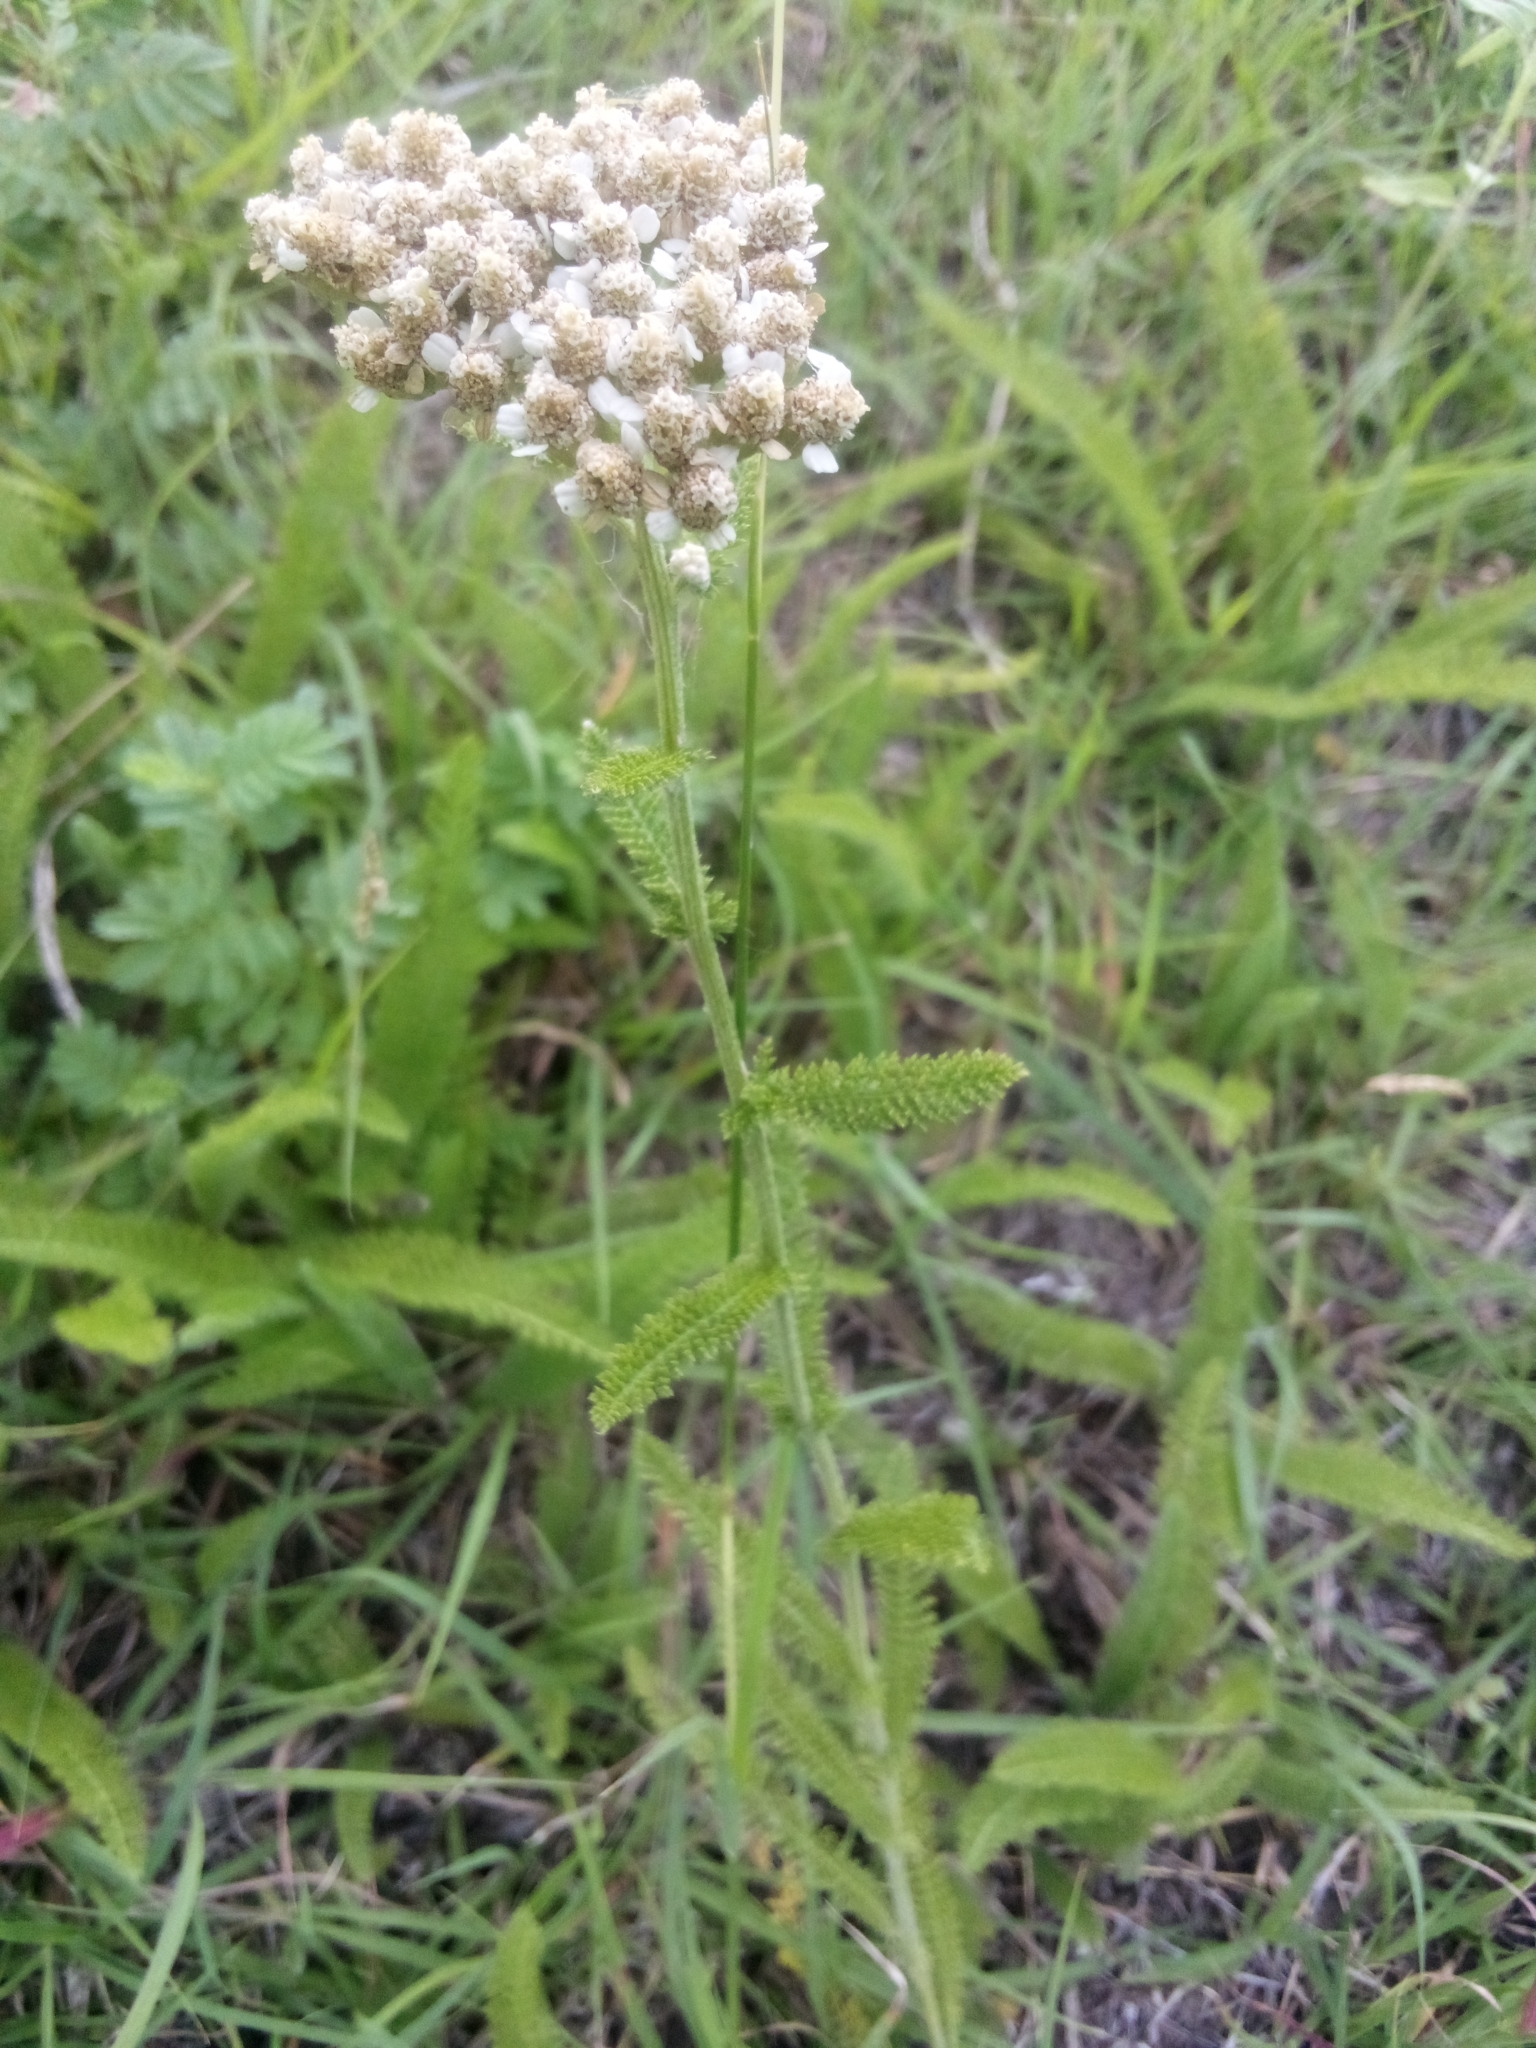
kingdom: Plantae
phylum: Tracheophyta
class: Magnoliopsida
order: Asterales
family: Asteraceae
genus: Achillea
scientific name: Achillea millefolium
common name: Yarrow
